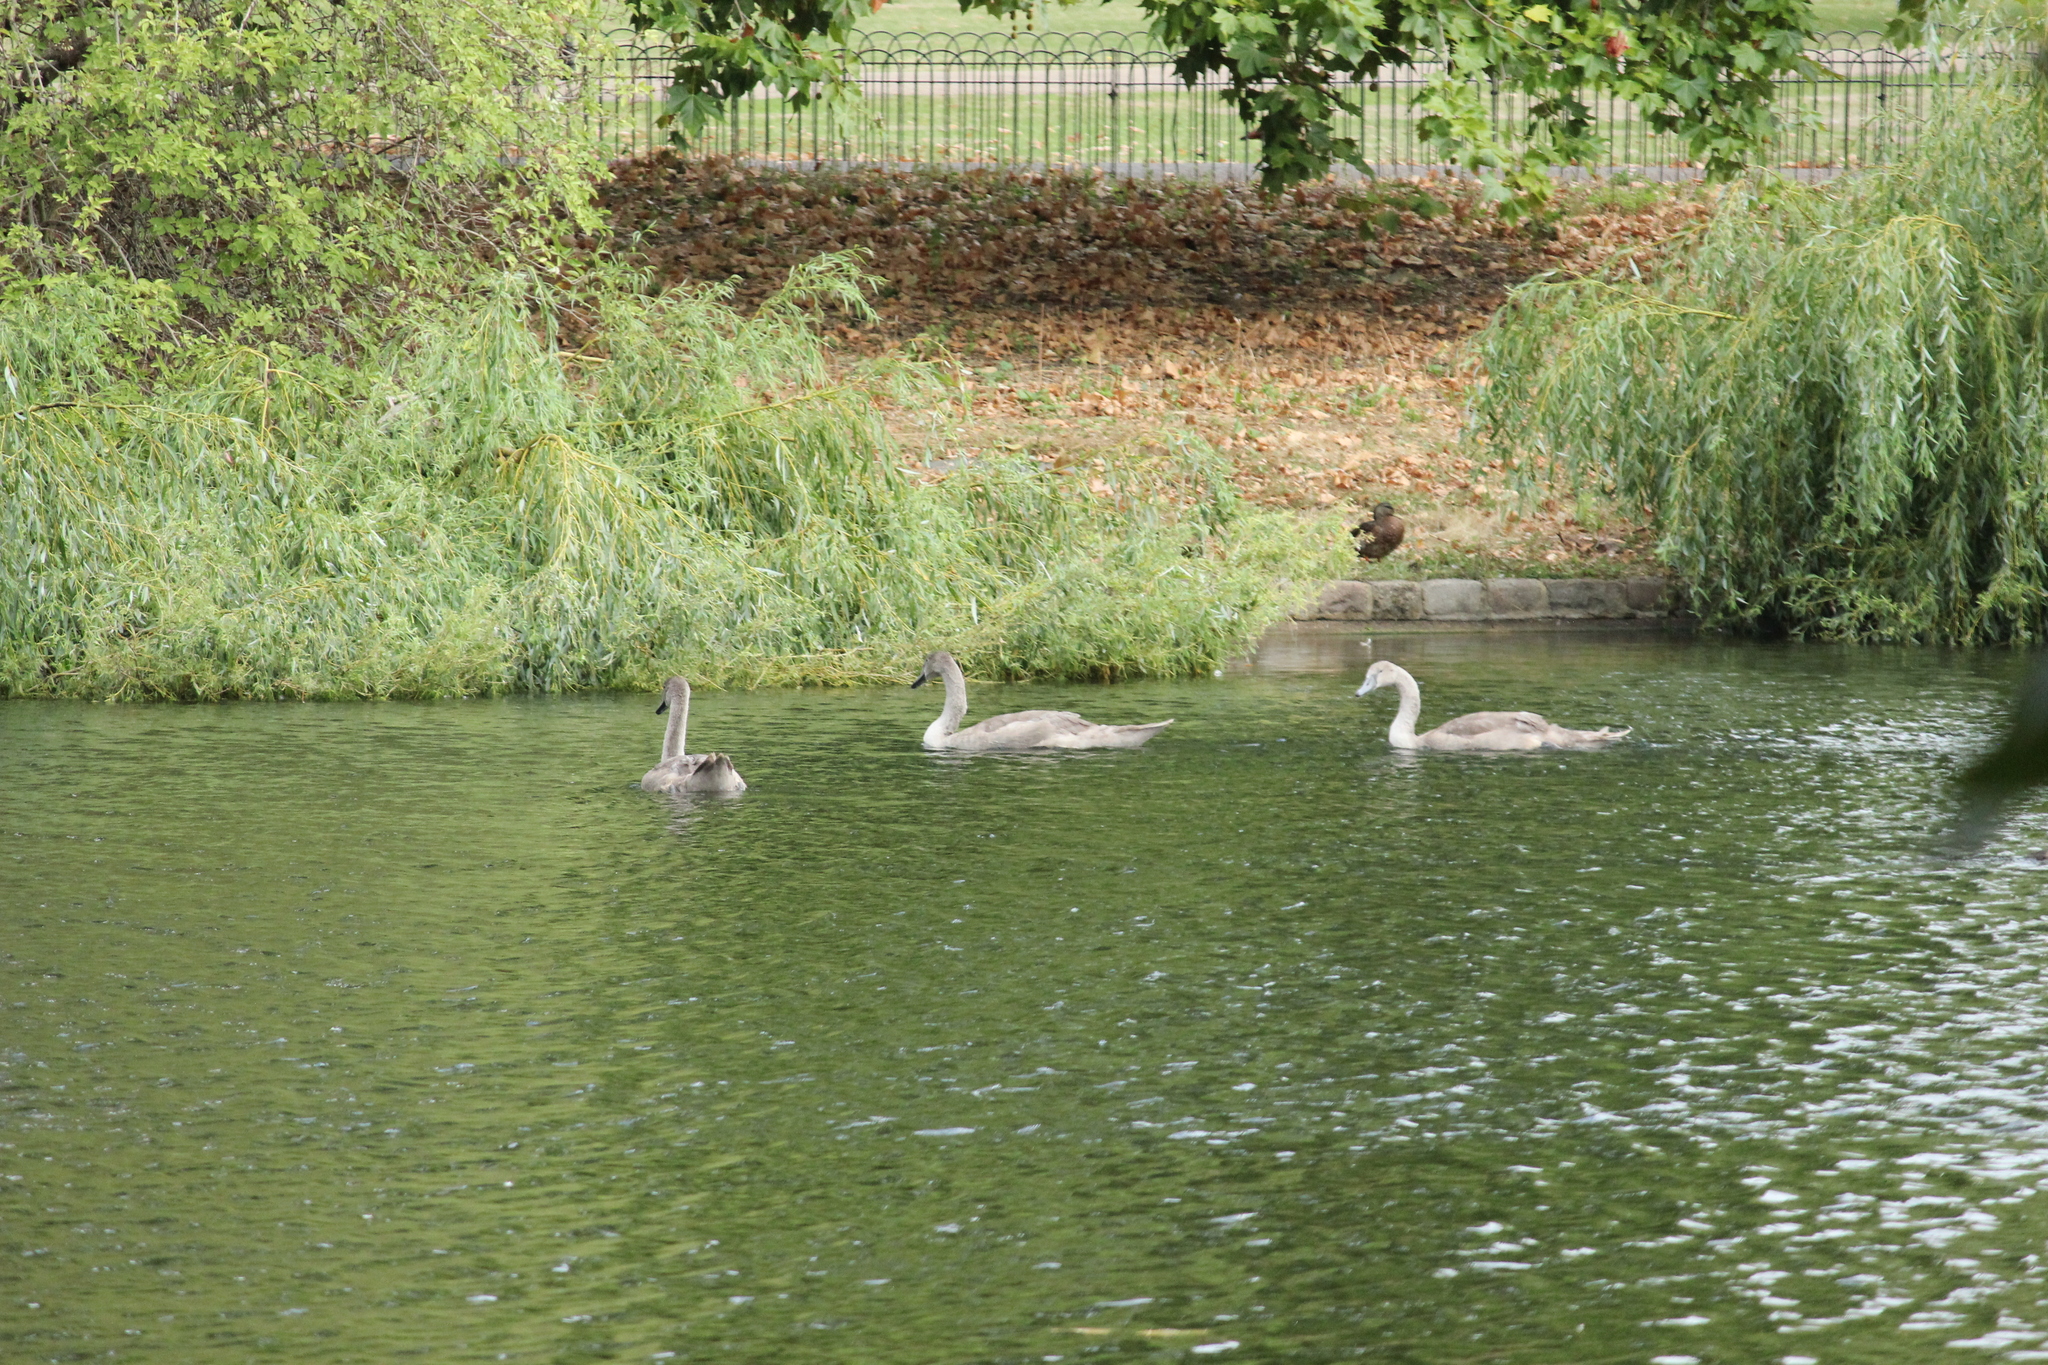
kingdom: Animalia
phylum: Chordata
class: Aves
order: Anseriformes
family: Anatidae
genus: Cygnus
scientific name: Cygnus olor
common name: Mute swan
